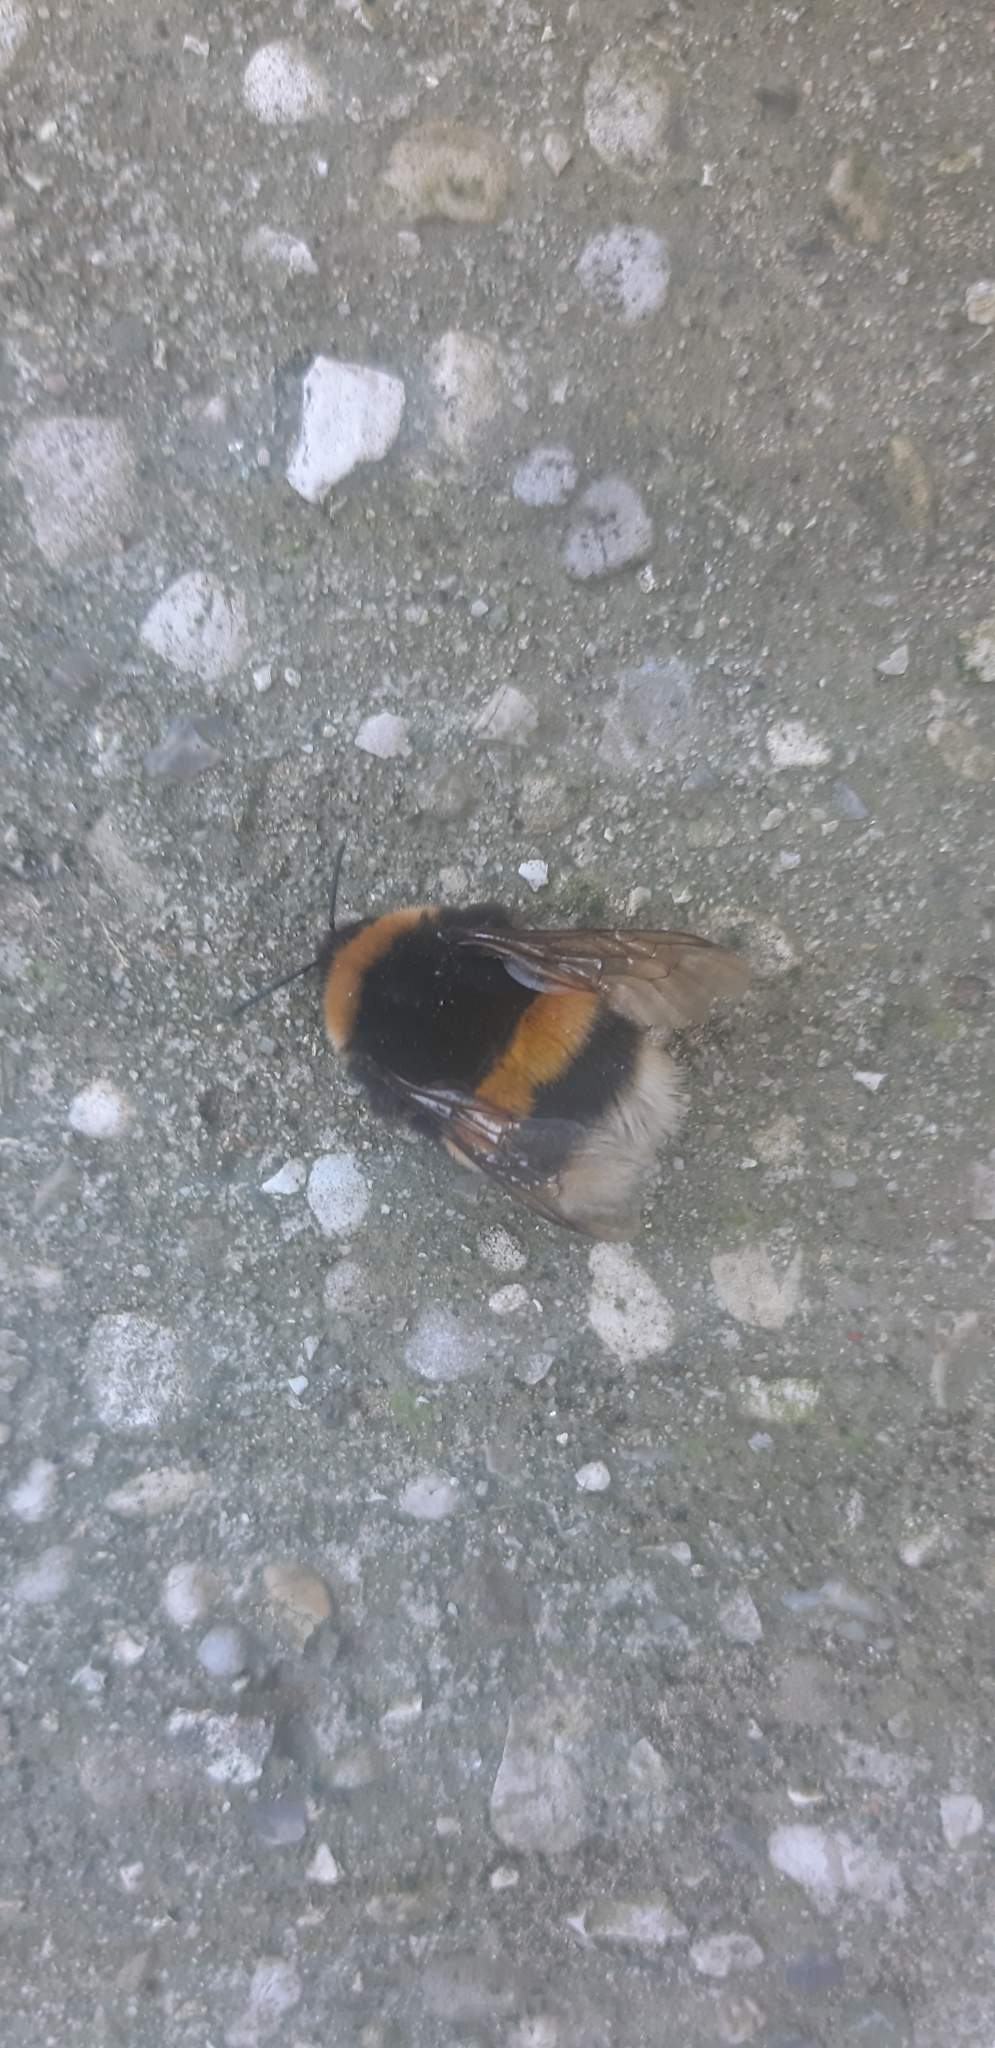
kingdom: Animalia
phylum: Arthropoda
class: Insecta
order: Hymenoptera
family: Apidae
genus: Bombus
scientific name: Bombus terrestris
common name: Buff-tailed bumblebee
